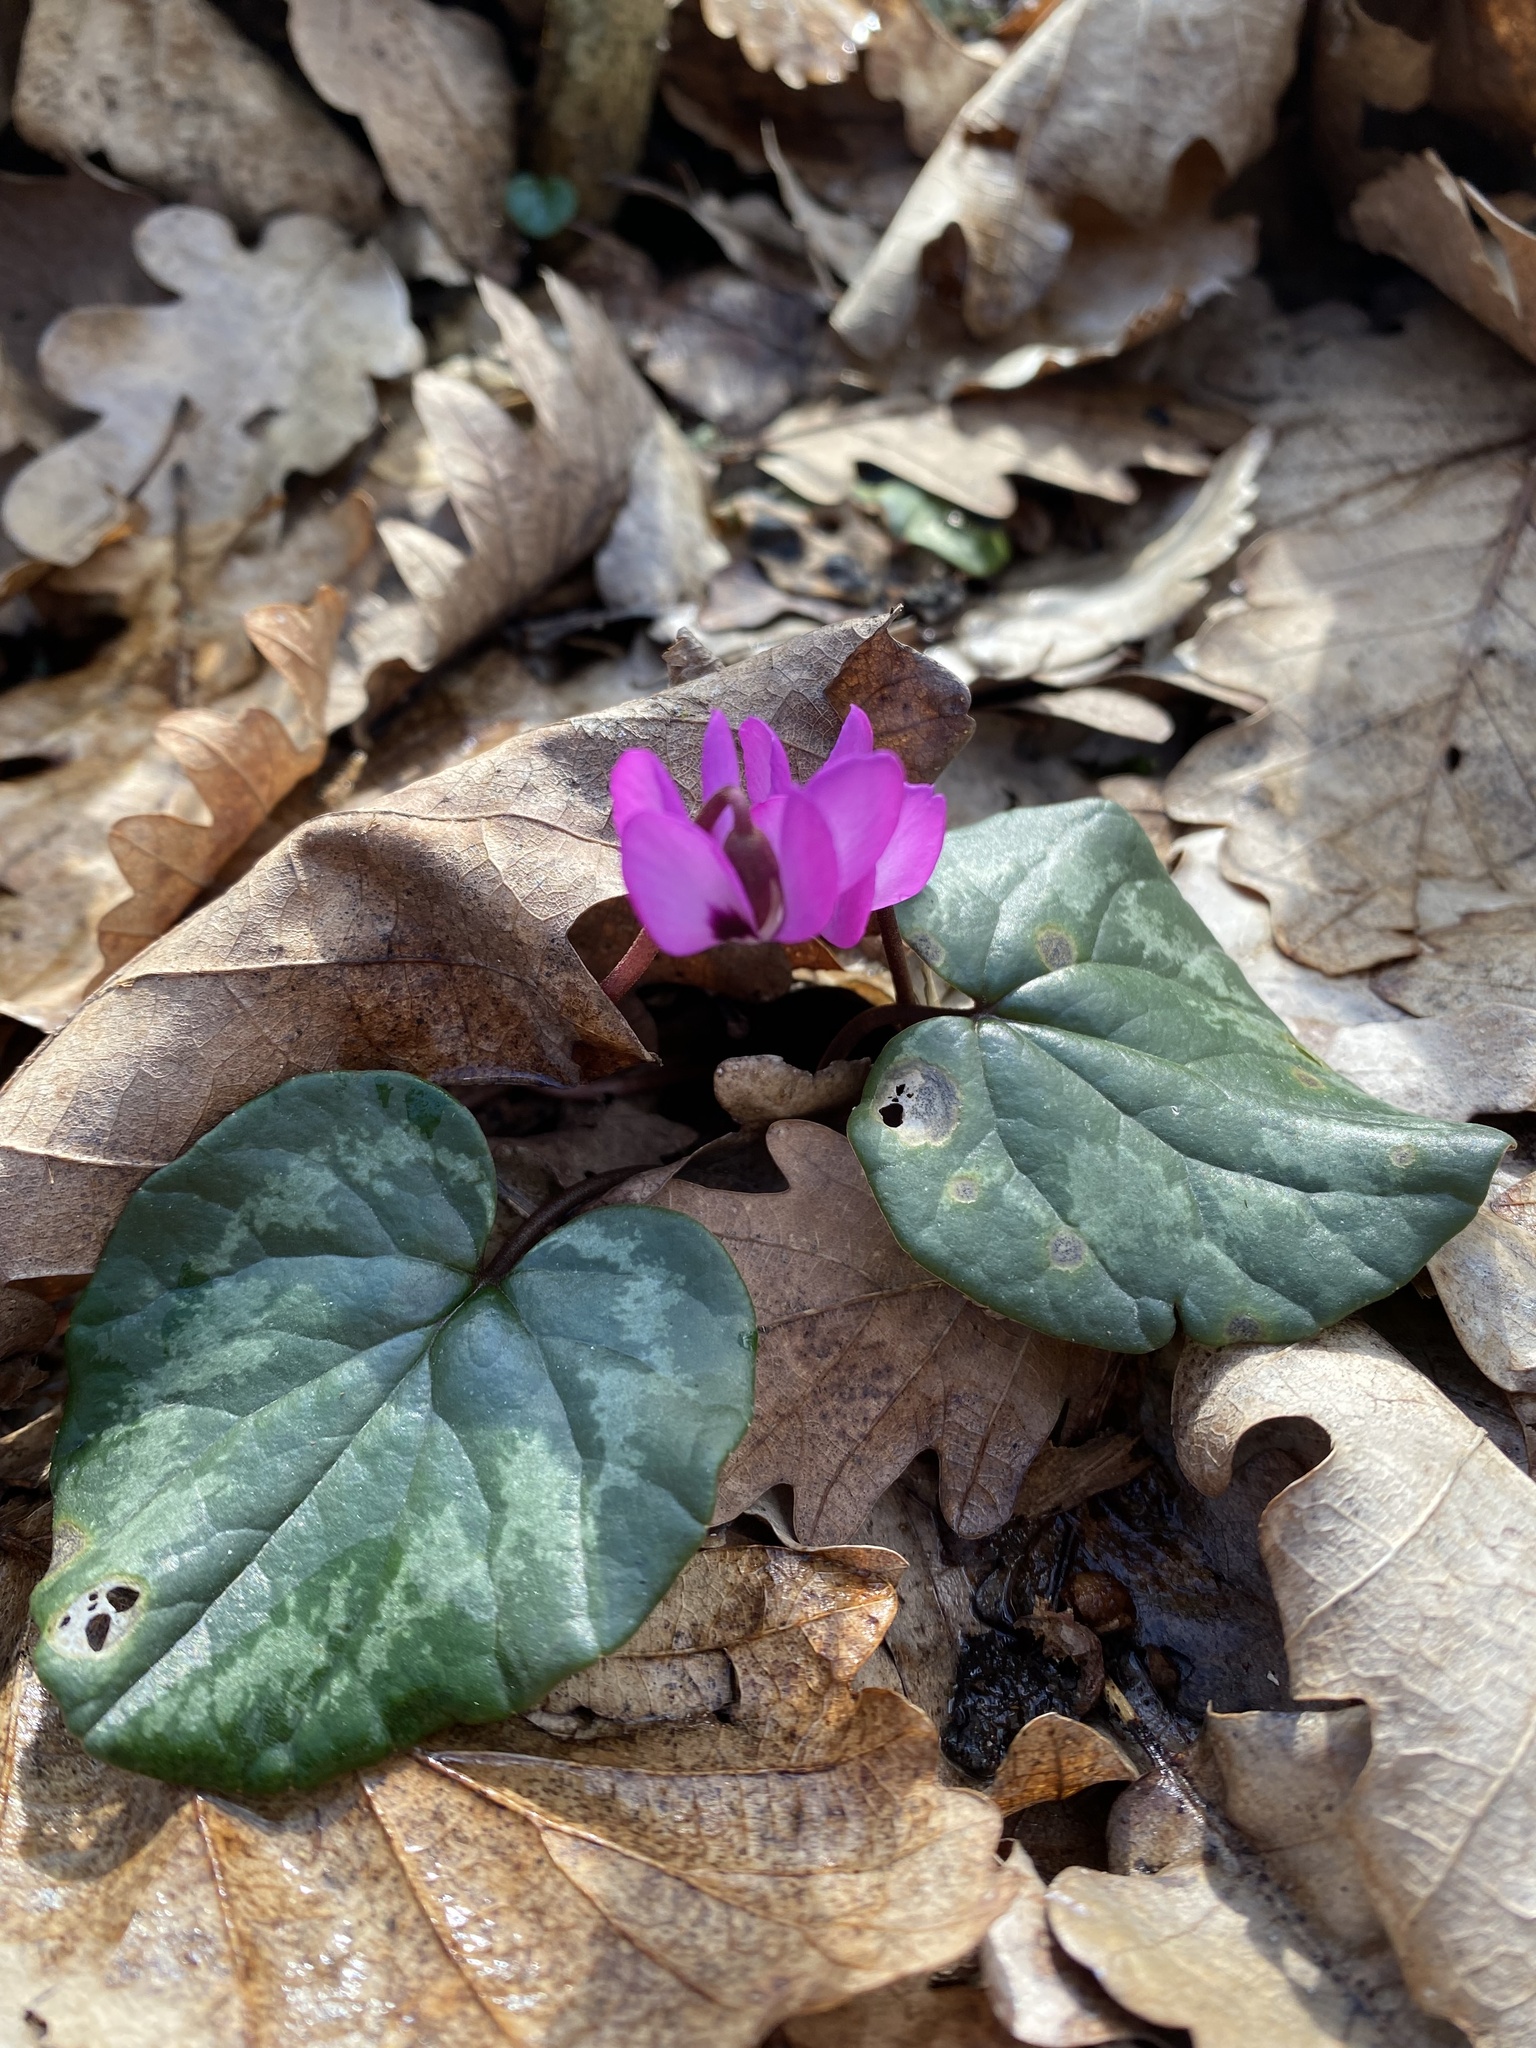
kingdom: Plantae
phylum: Tracheophyta
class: Magnoliopsida
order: Ericales
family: Primulaceae
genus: Cyclamen
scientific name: Cyclamen coum
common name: Eastern sowbread
